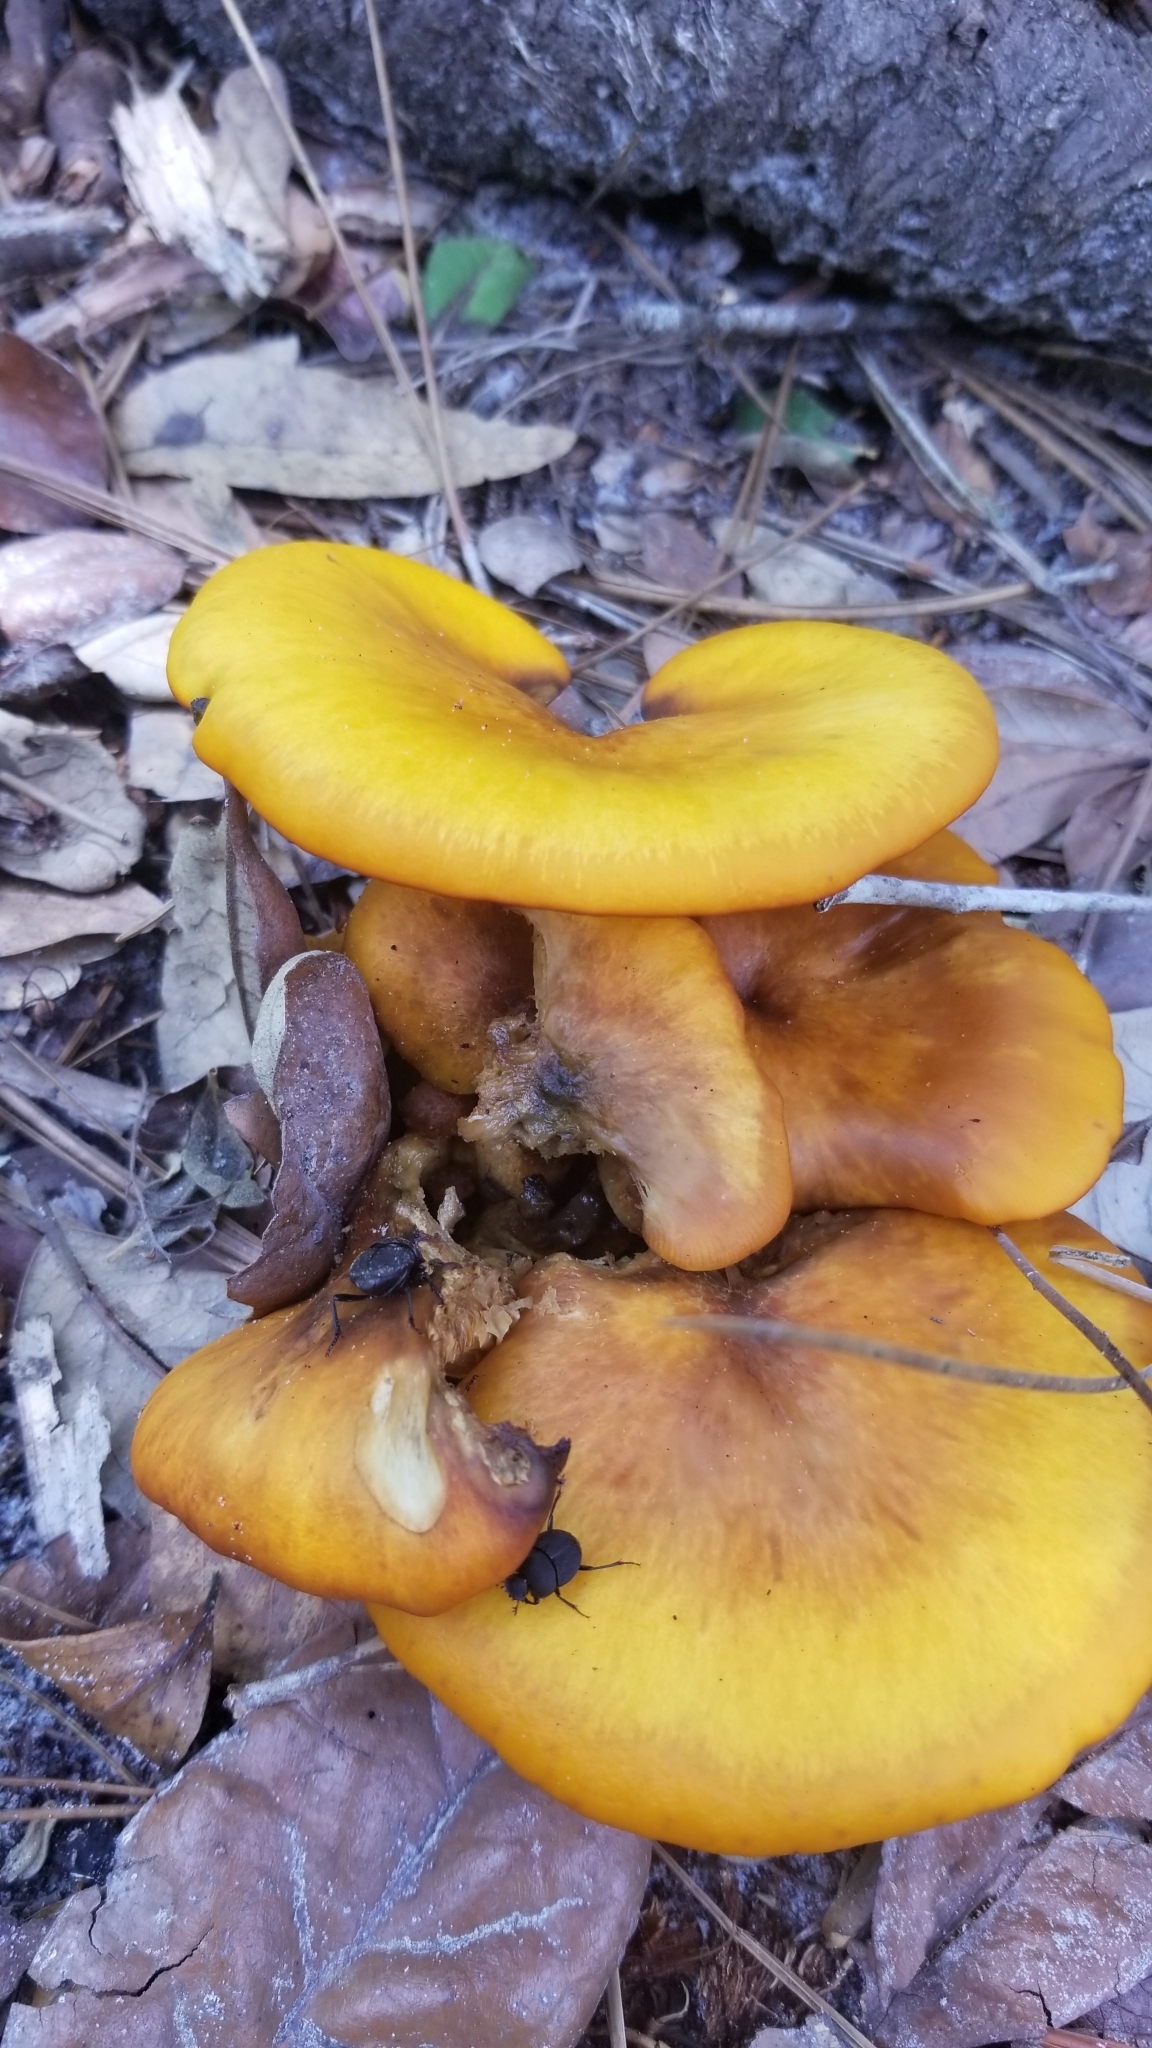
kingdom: Fungi
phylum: Basidiomycota
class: Agaricomycetes
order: Agaricales
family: Omphalotaceae
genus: Omphalotus
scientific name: Omphalotus illudens
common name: Jack o lantern
